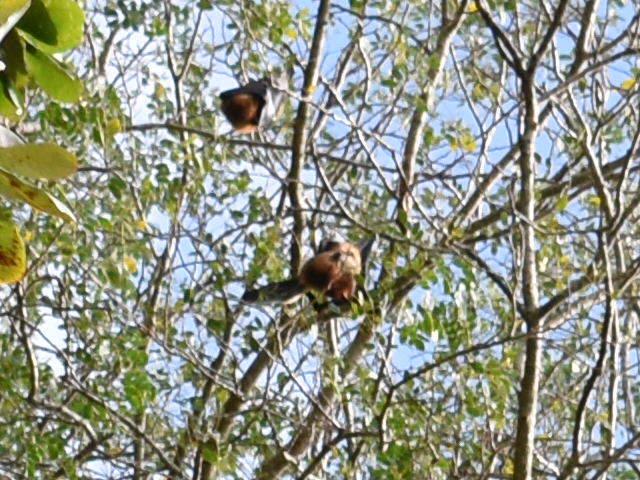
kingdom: Animalia
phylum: Chordata
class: Mammalia
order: Chiroptera
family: Pteropodidae
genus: Pteropus
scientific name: Pteropus niger
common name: Greater mascarene flying fox
